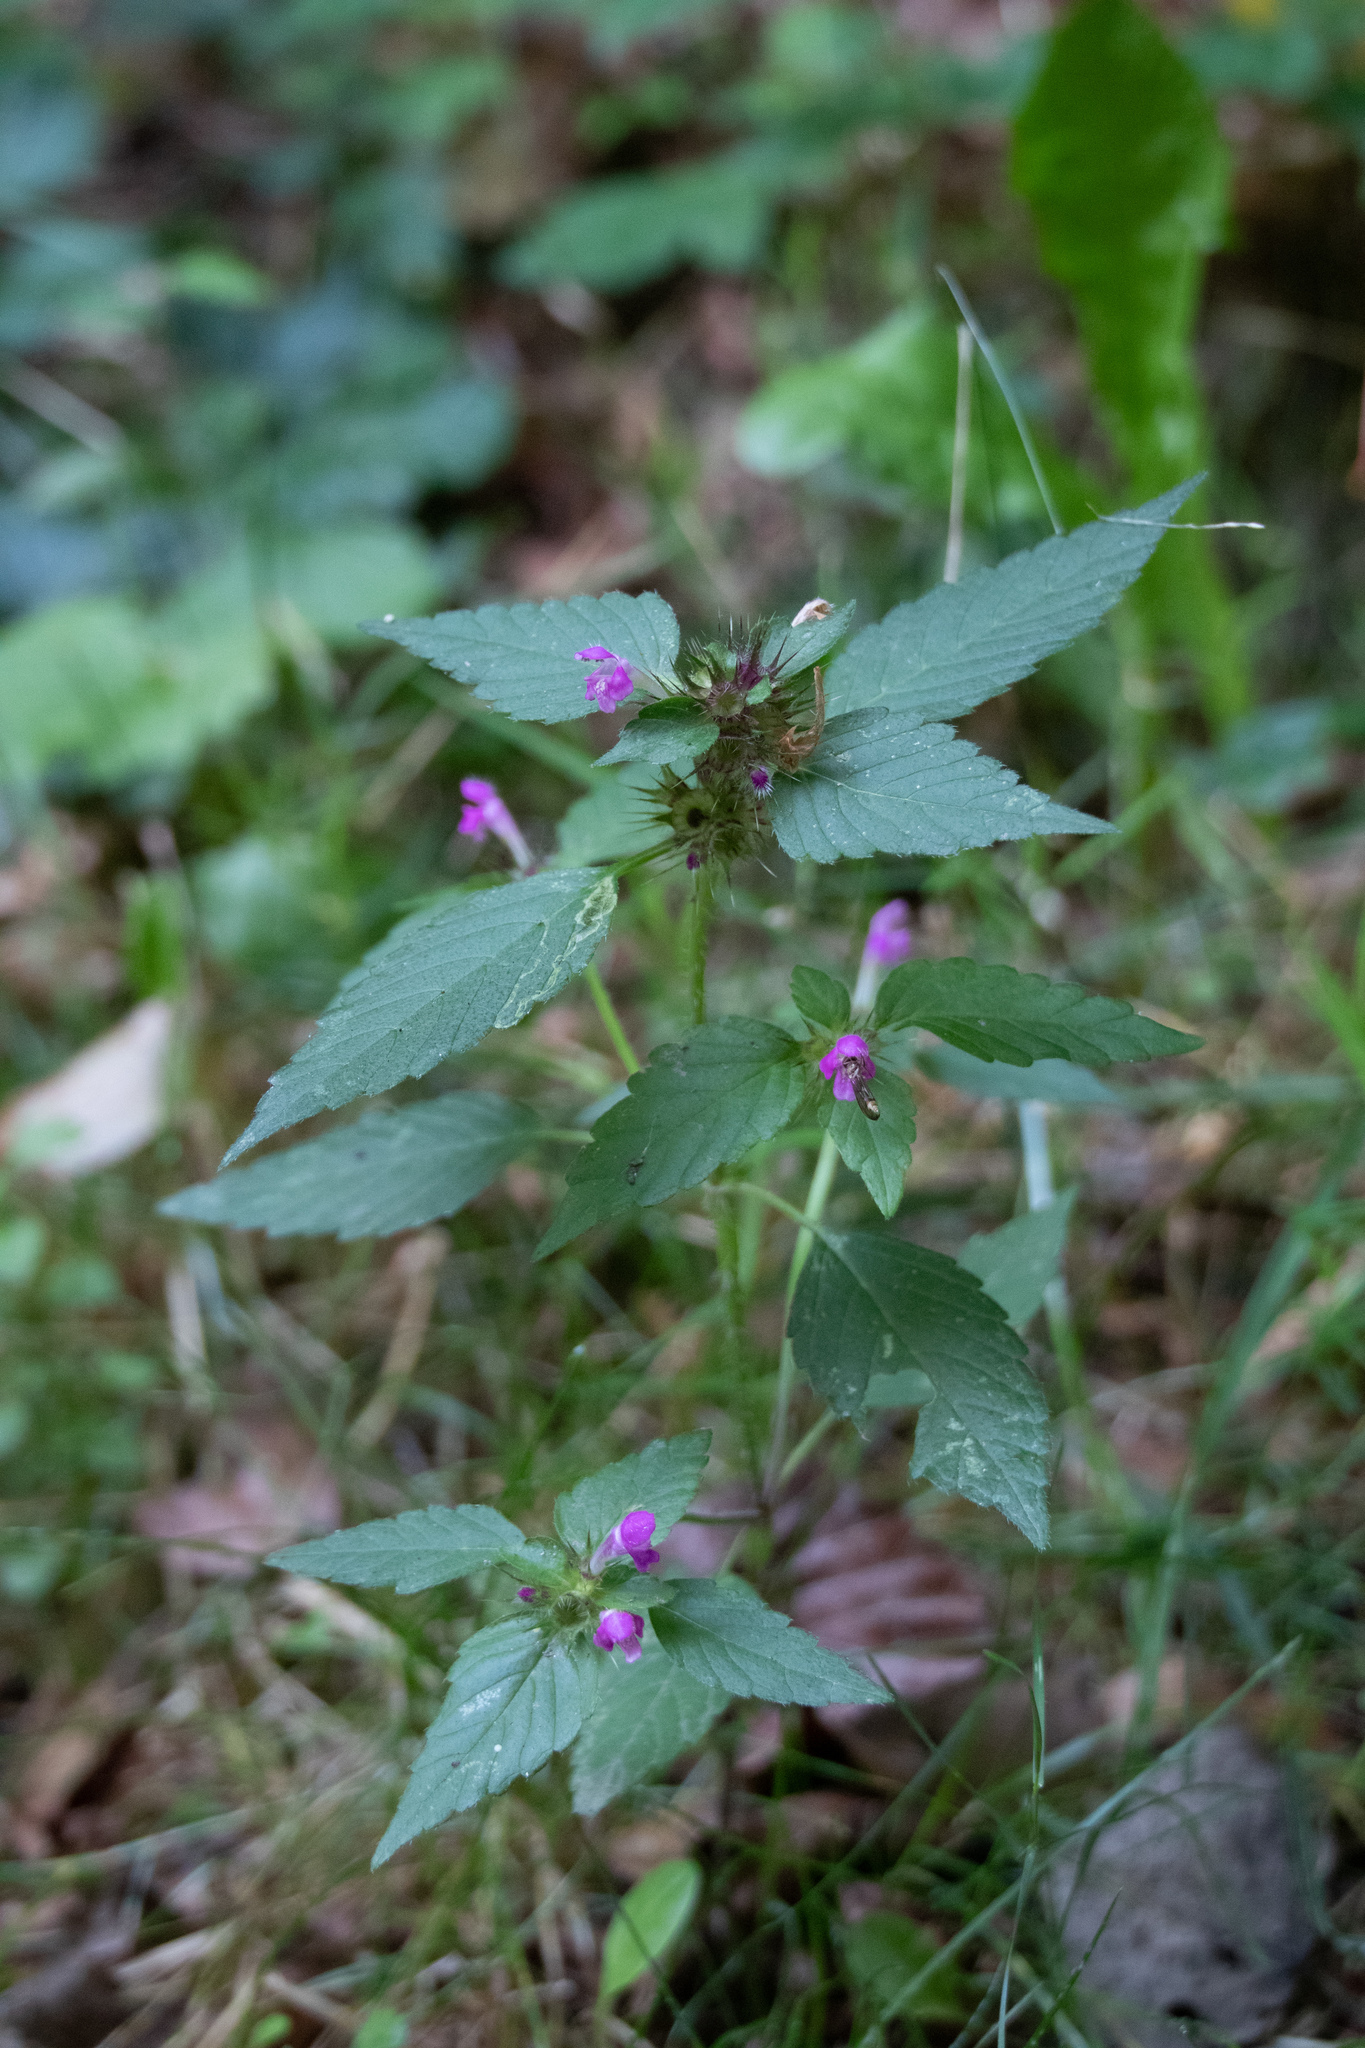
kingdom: Plantae
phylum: Tracheophyta
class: Magnoliopsida
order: Lamiales
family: Lamiaceae
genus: Galeopsis
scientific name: Galeopsis tetrahit
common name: Common hemp-nettle
